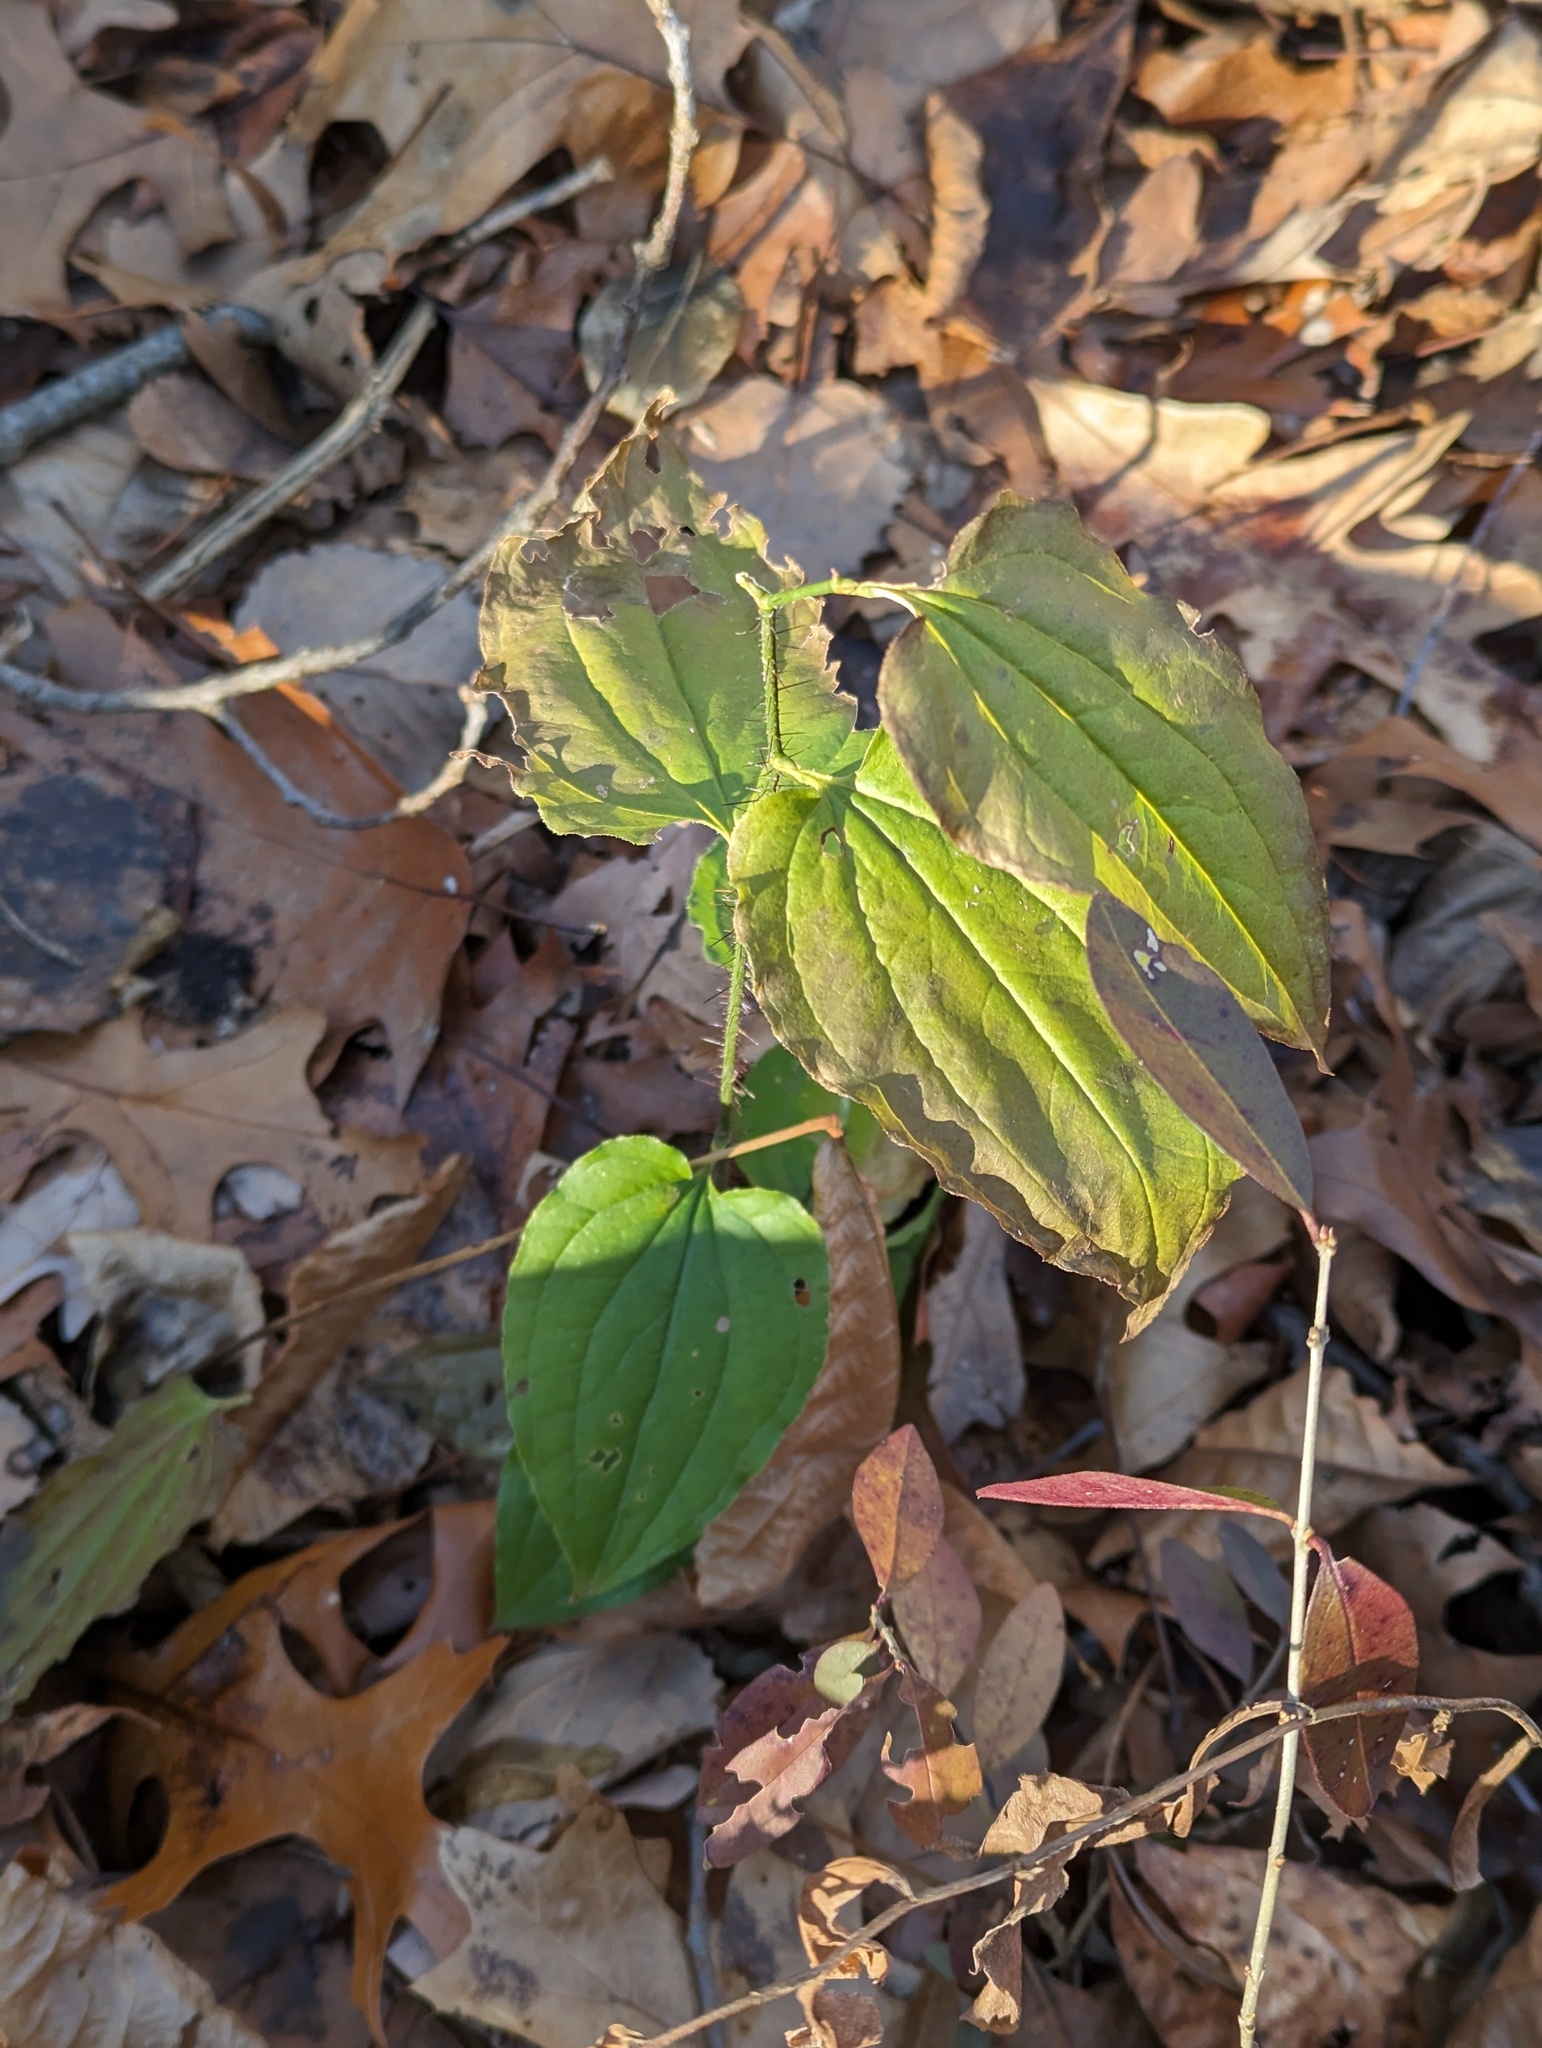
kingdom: Plantae
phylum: Tracheophyta
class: Liliopsida
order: Liliales
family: Smilacaceae
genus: Smilax
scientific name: Smilax tamnoides
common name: Hellfetter
